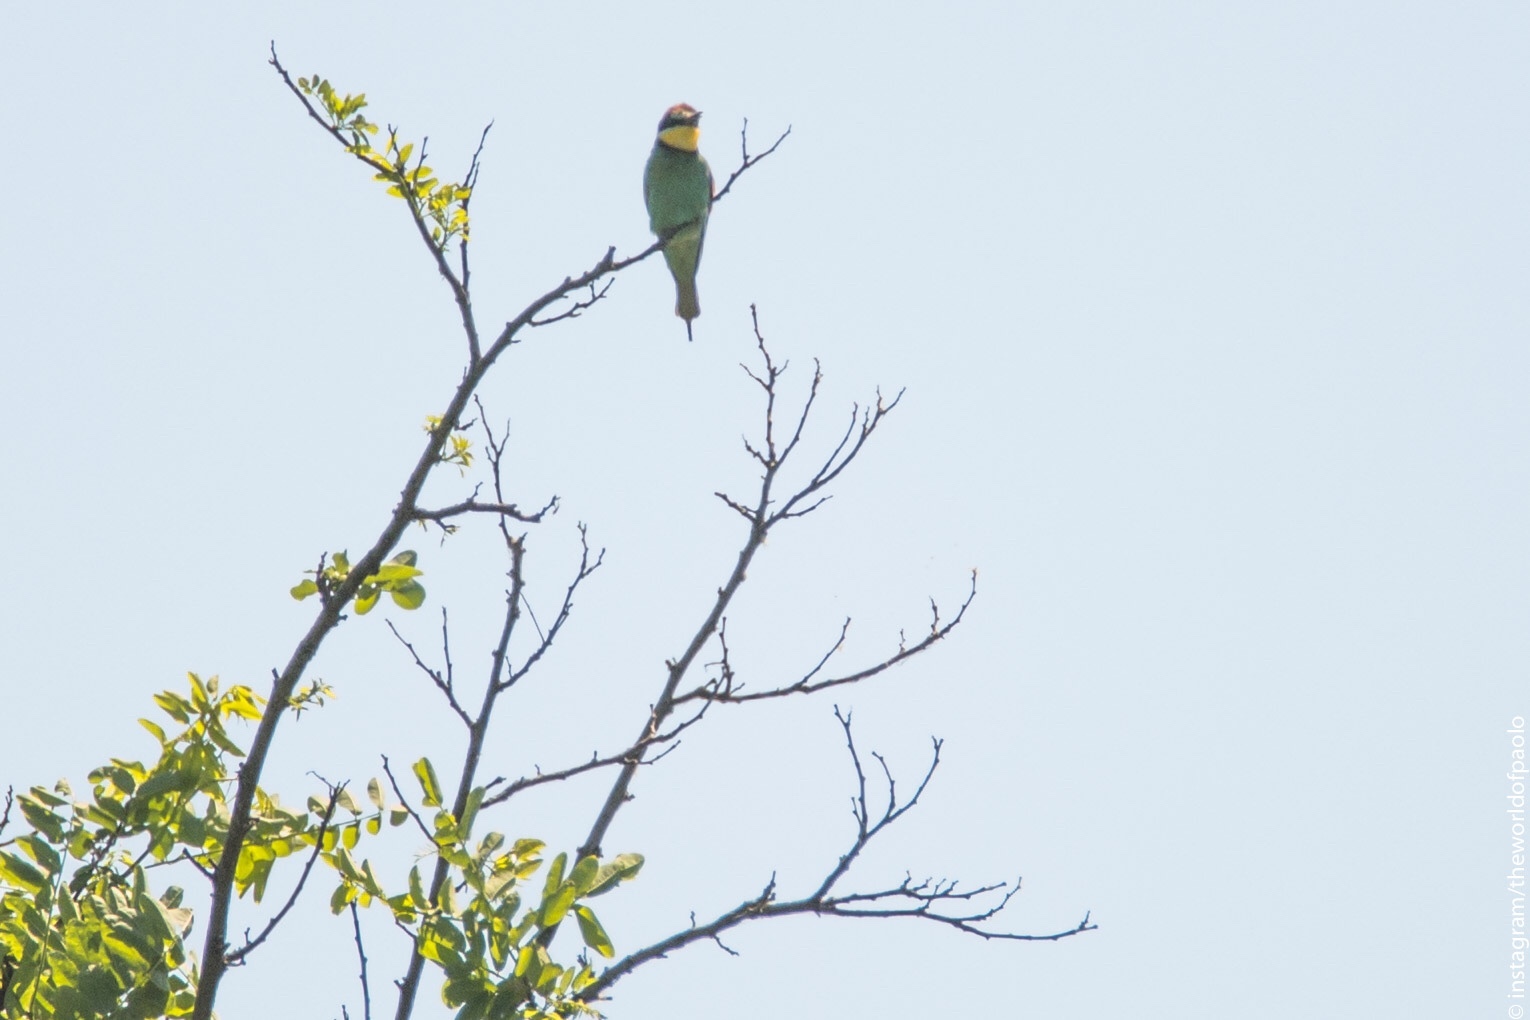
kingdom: Animalia
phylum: Chordata
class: Aves
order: Coraciiformes
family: Meropidae
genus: Merops
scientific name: Merops apiaster
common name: European bee-eater
